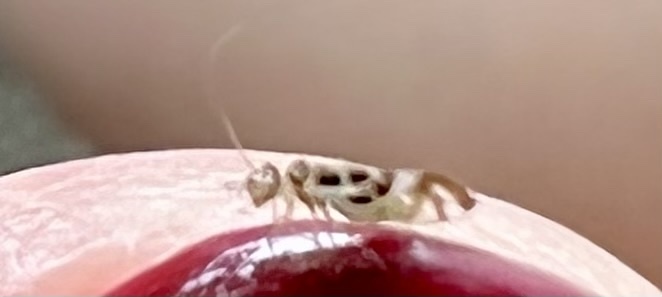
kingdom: Animalia
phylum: Arthropoda
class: Insecta
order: Psocodea
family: Stenopsocidae
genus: Graphopsocus
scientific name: Graphopsocus cruciatus
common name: Lizard bark louse
